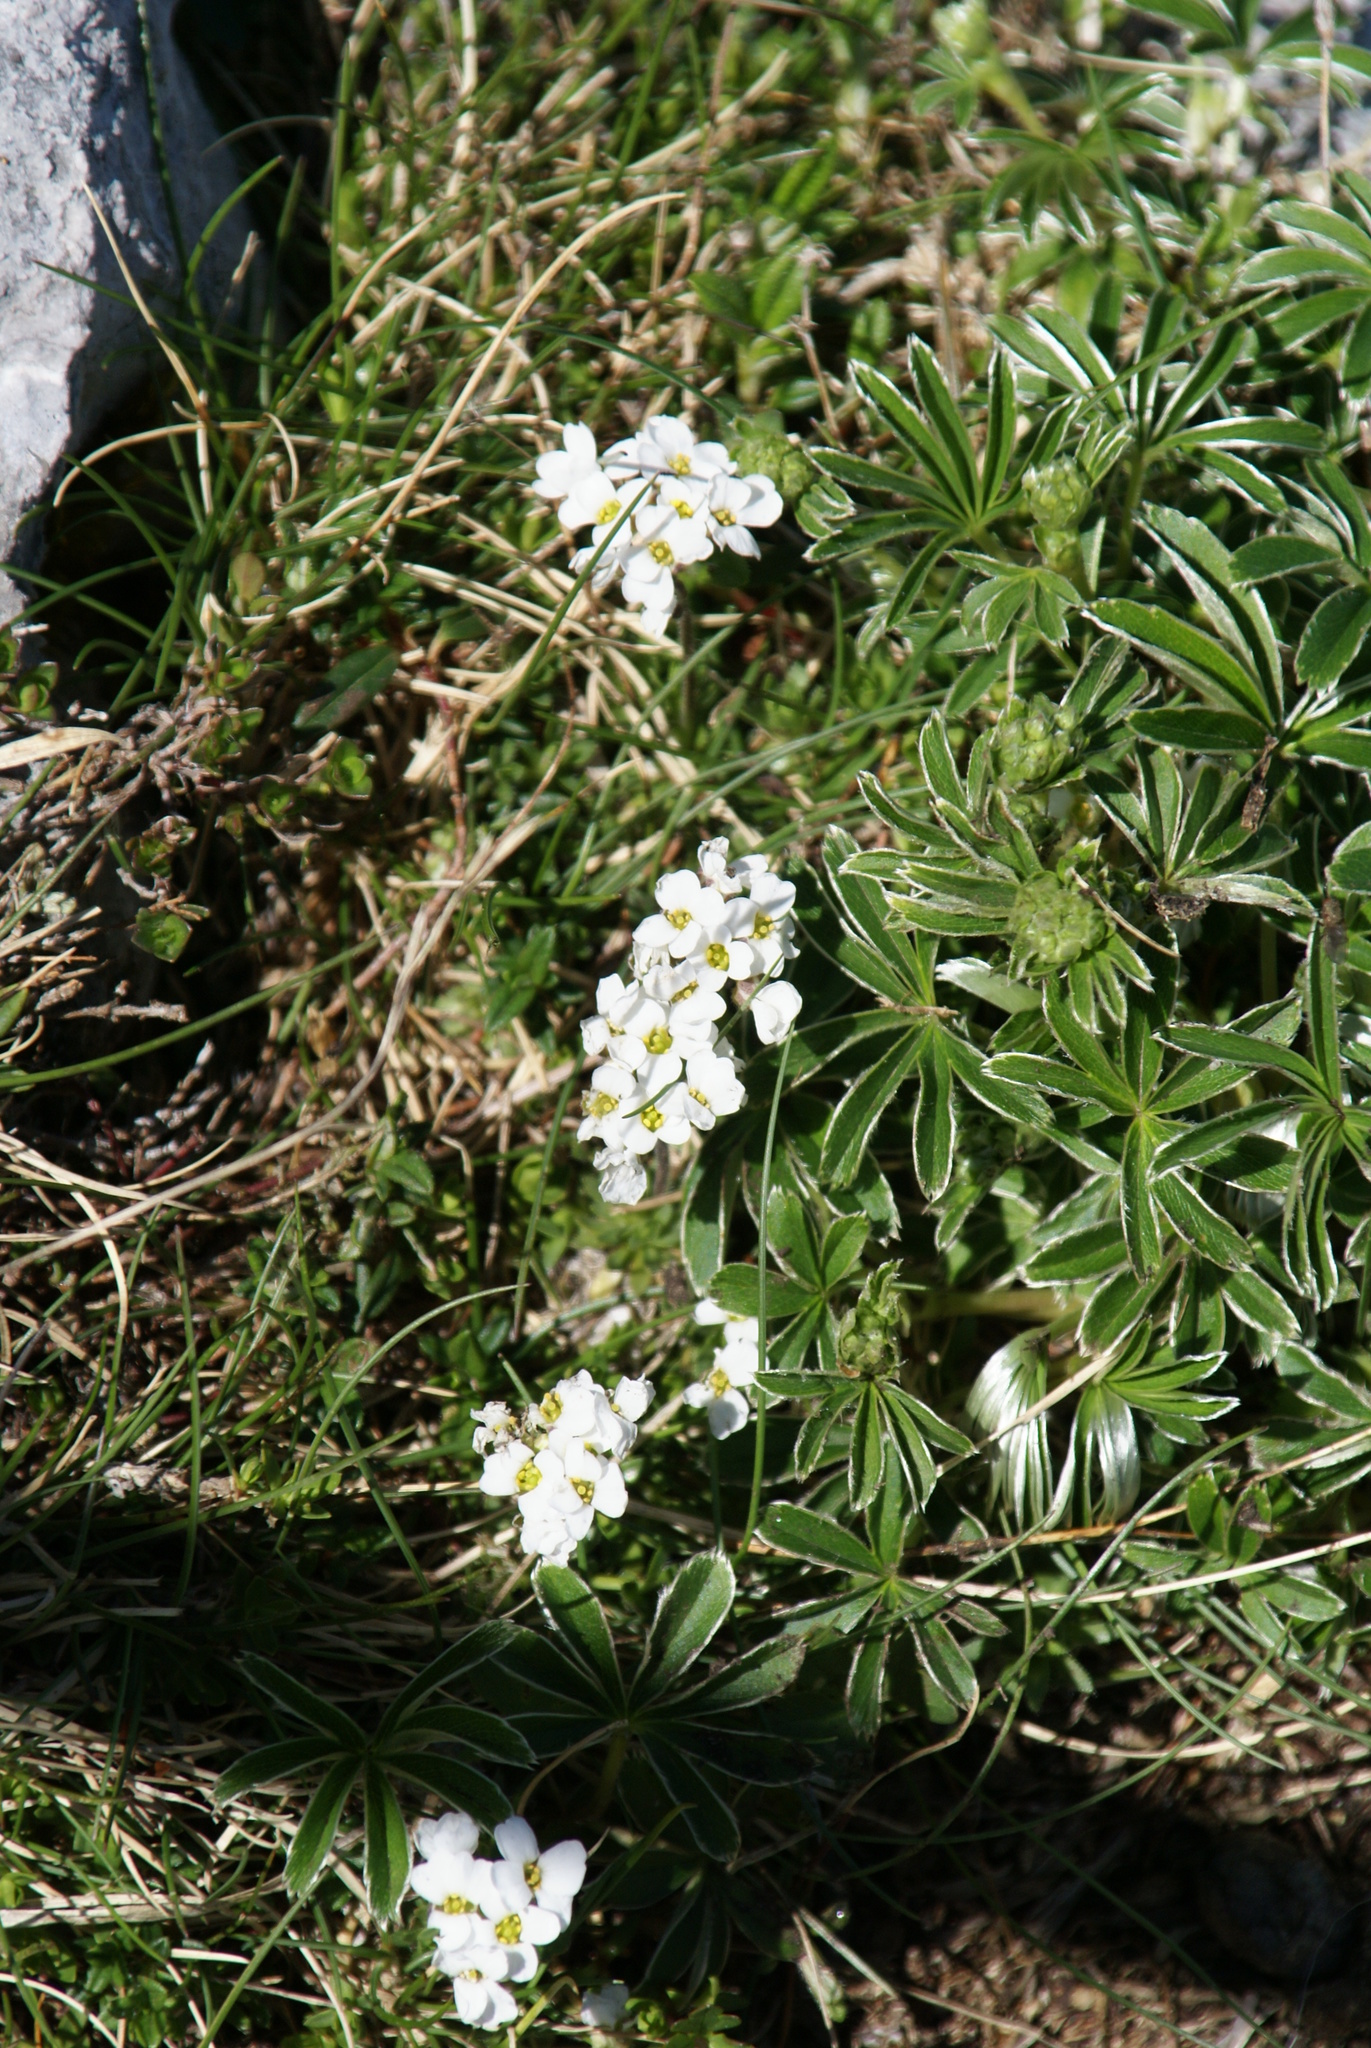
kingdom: Plantae
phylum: Tracheophyta
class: Magnoliopsida
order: Brassicales
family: Brassicaceae
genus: Hornungia
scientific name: Hornungia alpina
